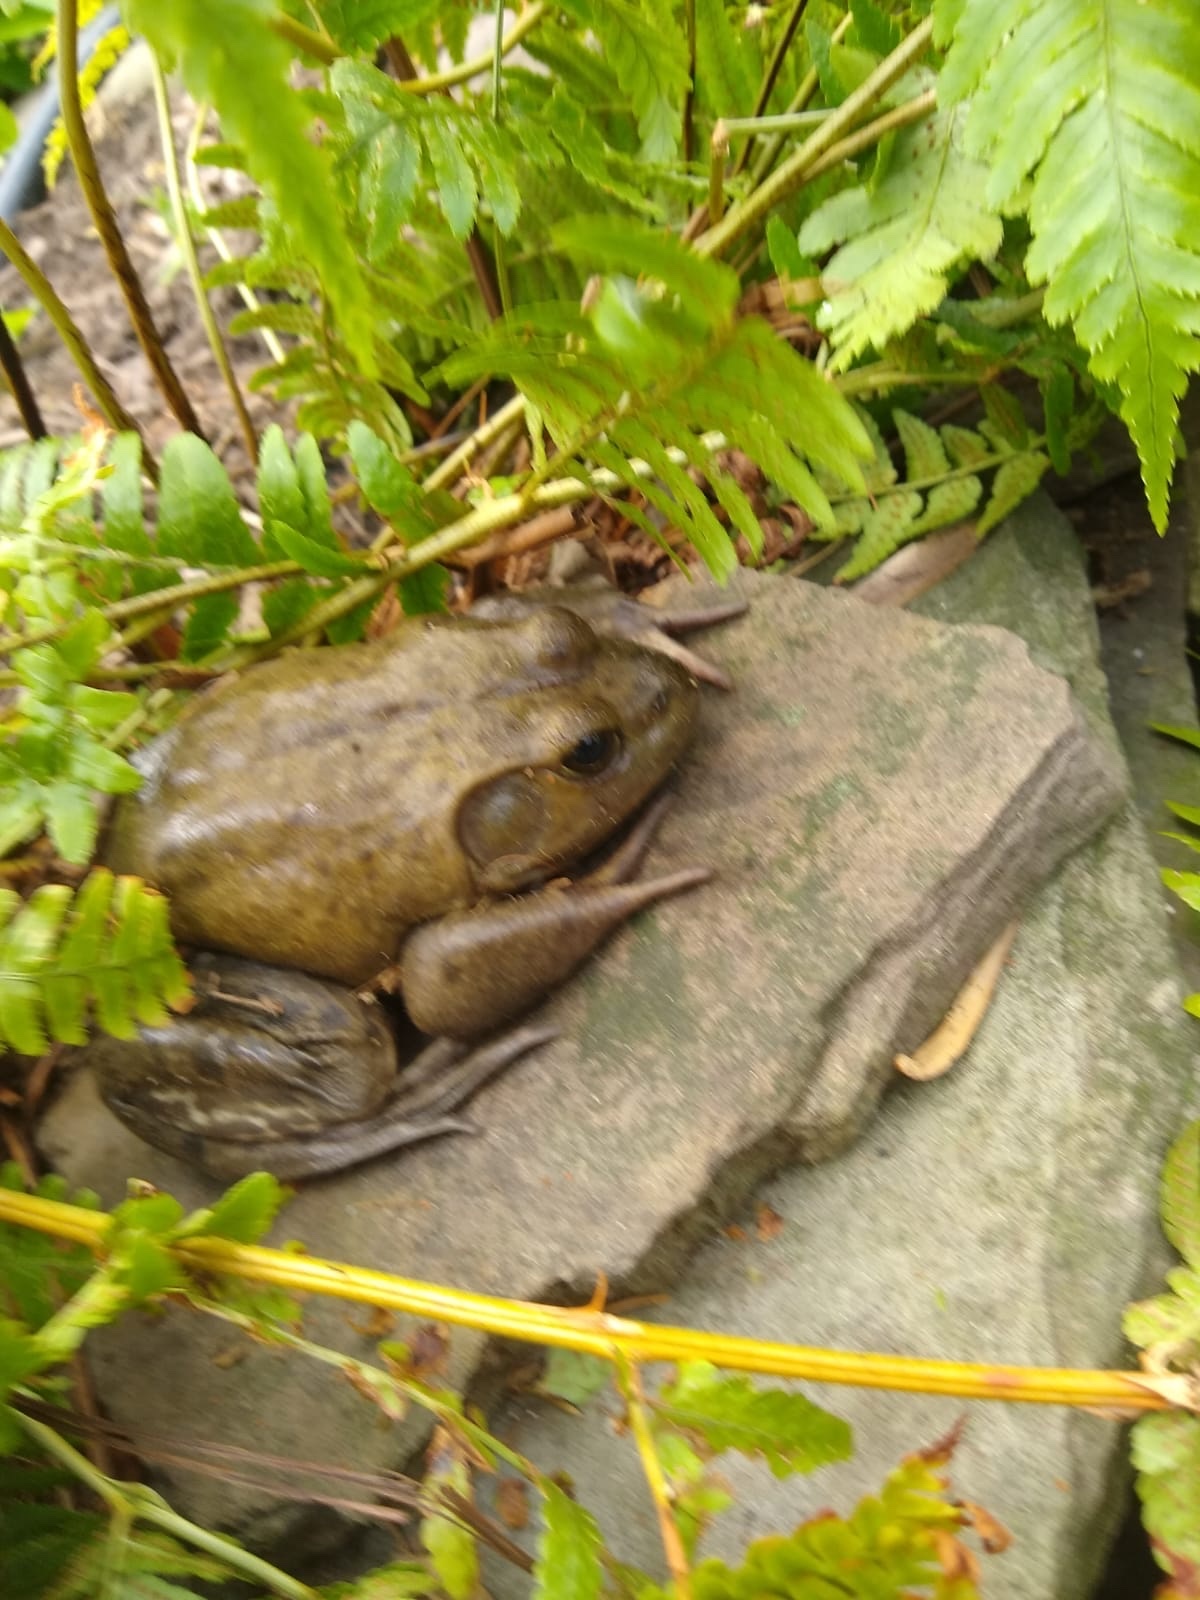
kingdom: Animalia
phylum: Chordata
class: Amphibia
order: Anura
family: Ranidae
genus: Lithobates
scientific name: Lithobates catesbeianus
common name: American bullfrog
